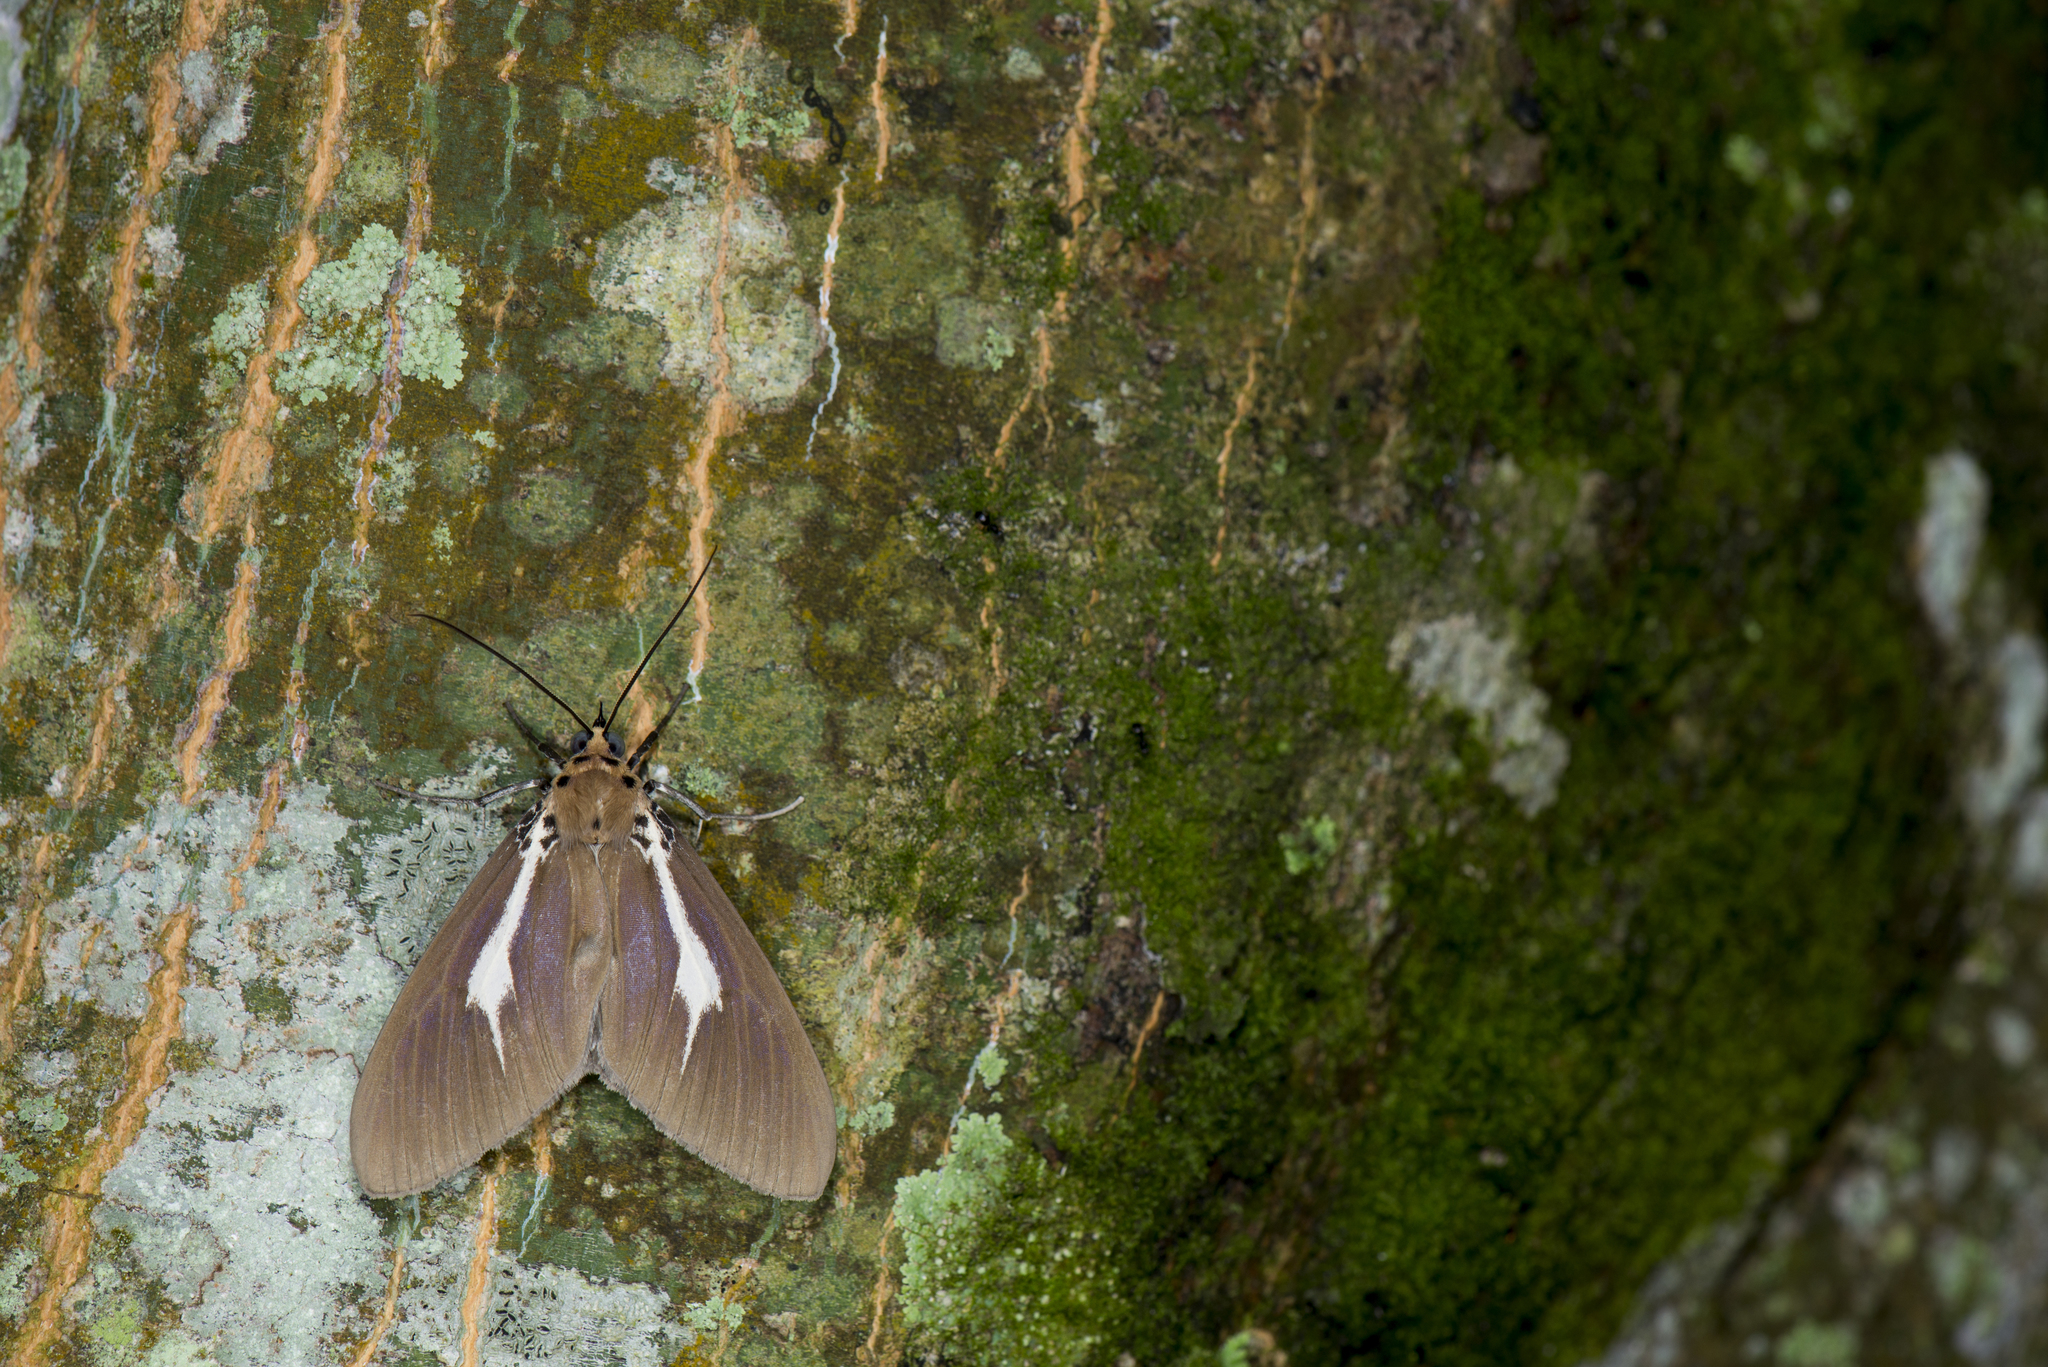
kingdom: Animalia
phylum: Arthropoda
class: Insecta
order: Lepidoptera
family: Erebidae
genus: Asota
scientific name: Asota heliconia
